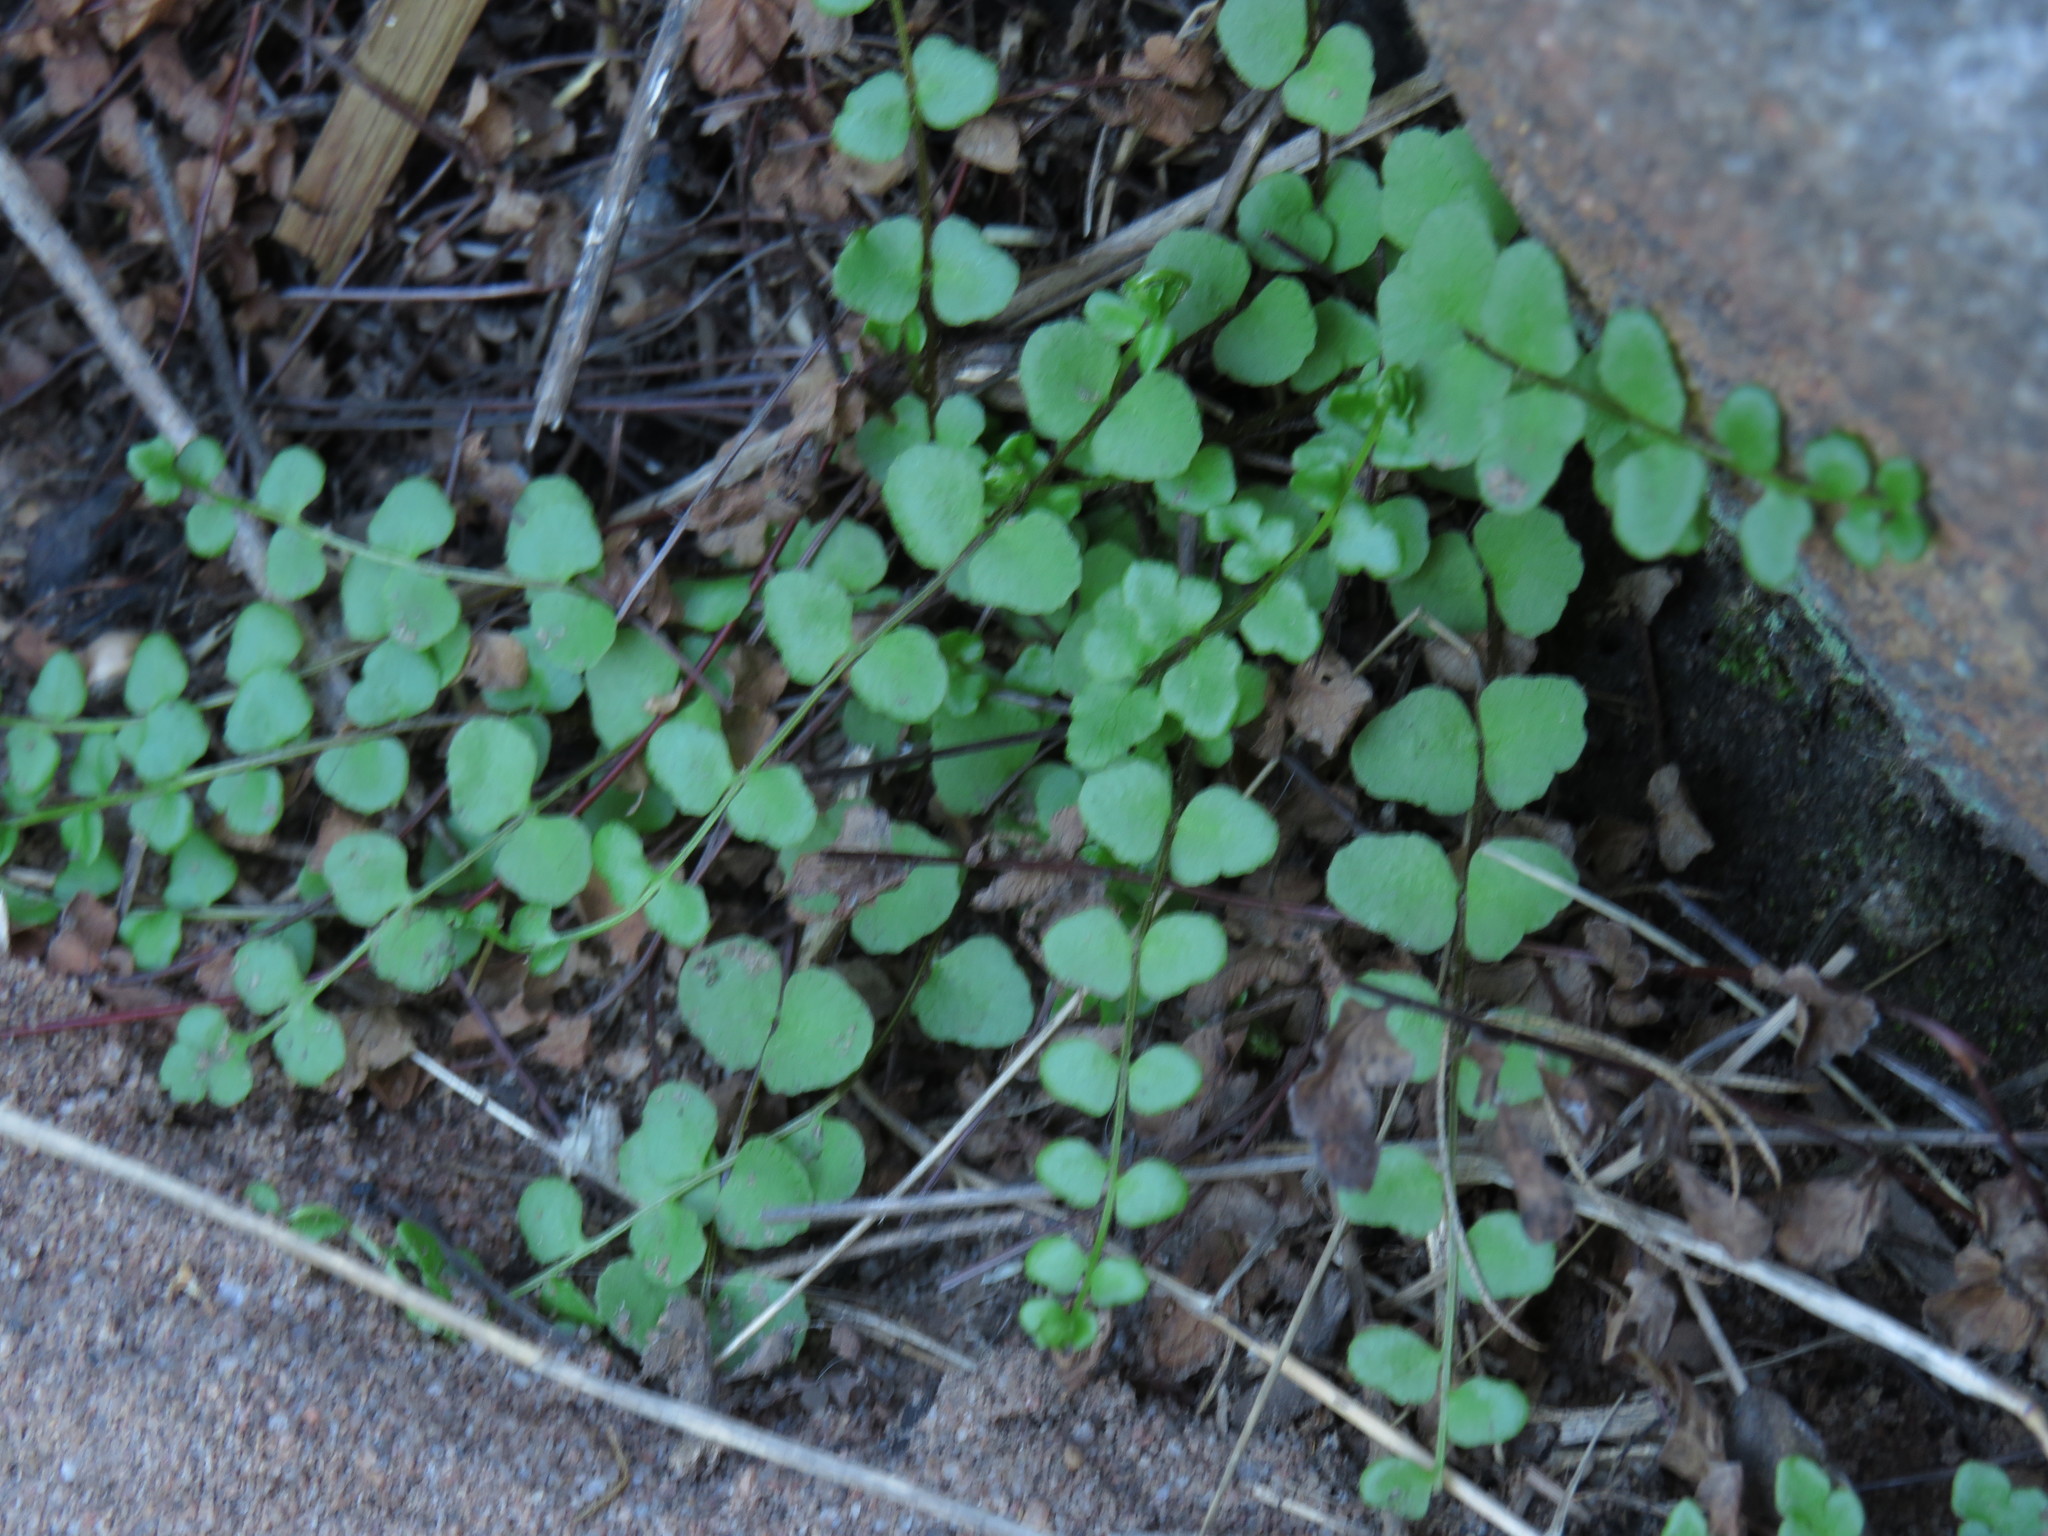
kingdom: Plantae
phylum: Tracheophyta
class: Polypodiopsida
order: Polypodiales
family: Pteridaceae
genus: Cheilanthes
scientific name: Cheilanthes hastata
